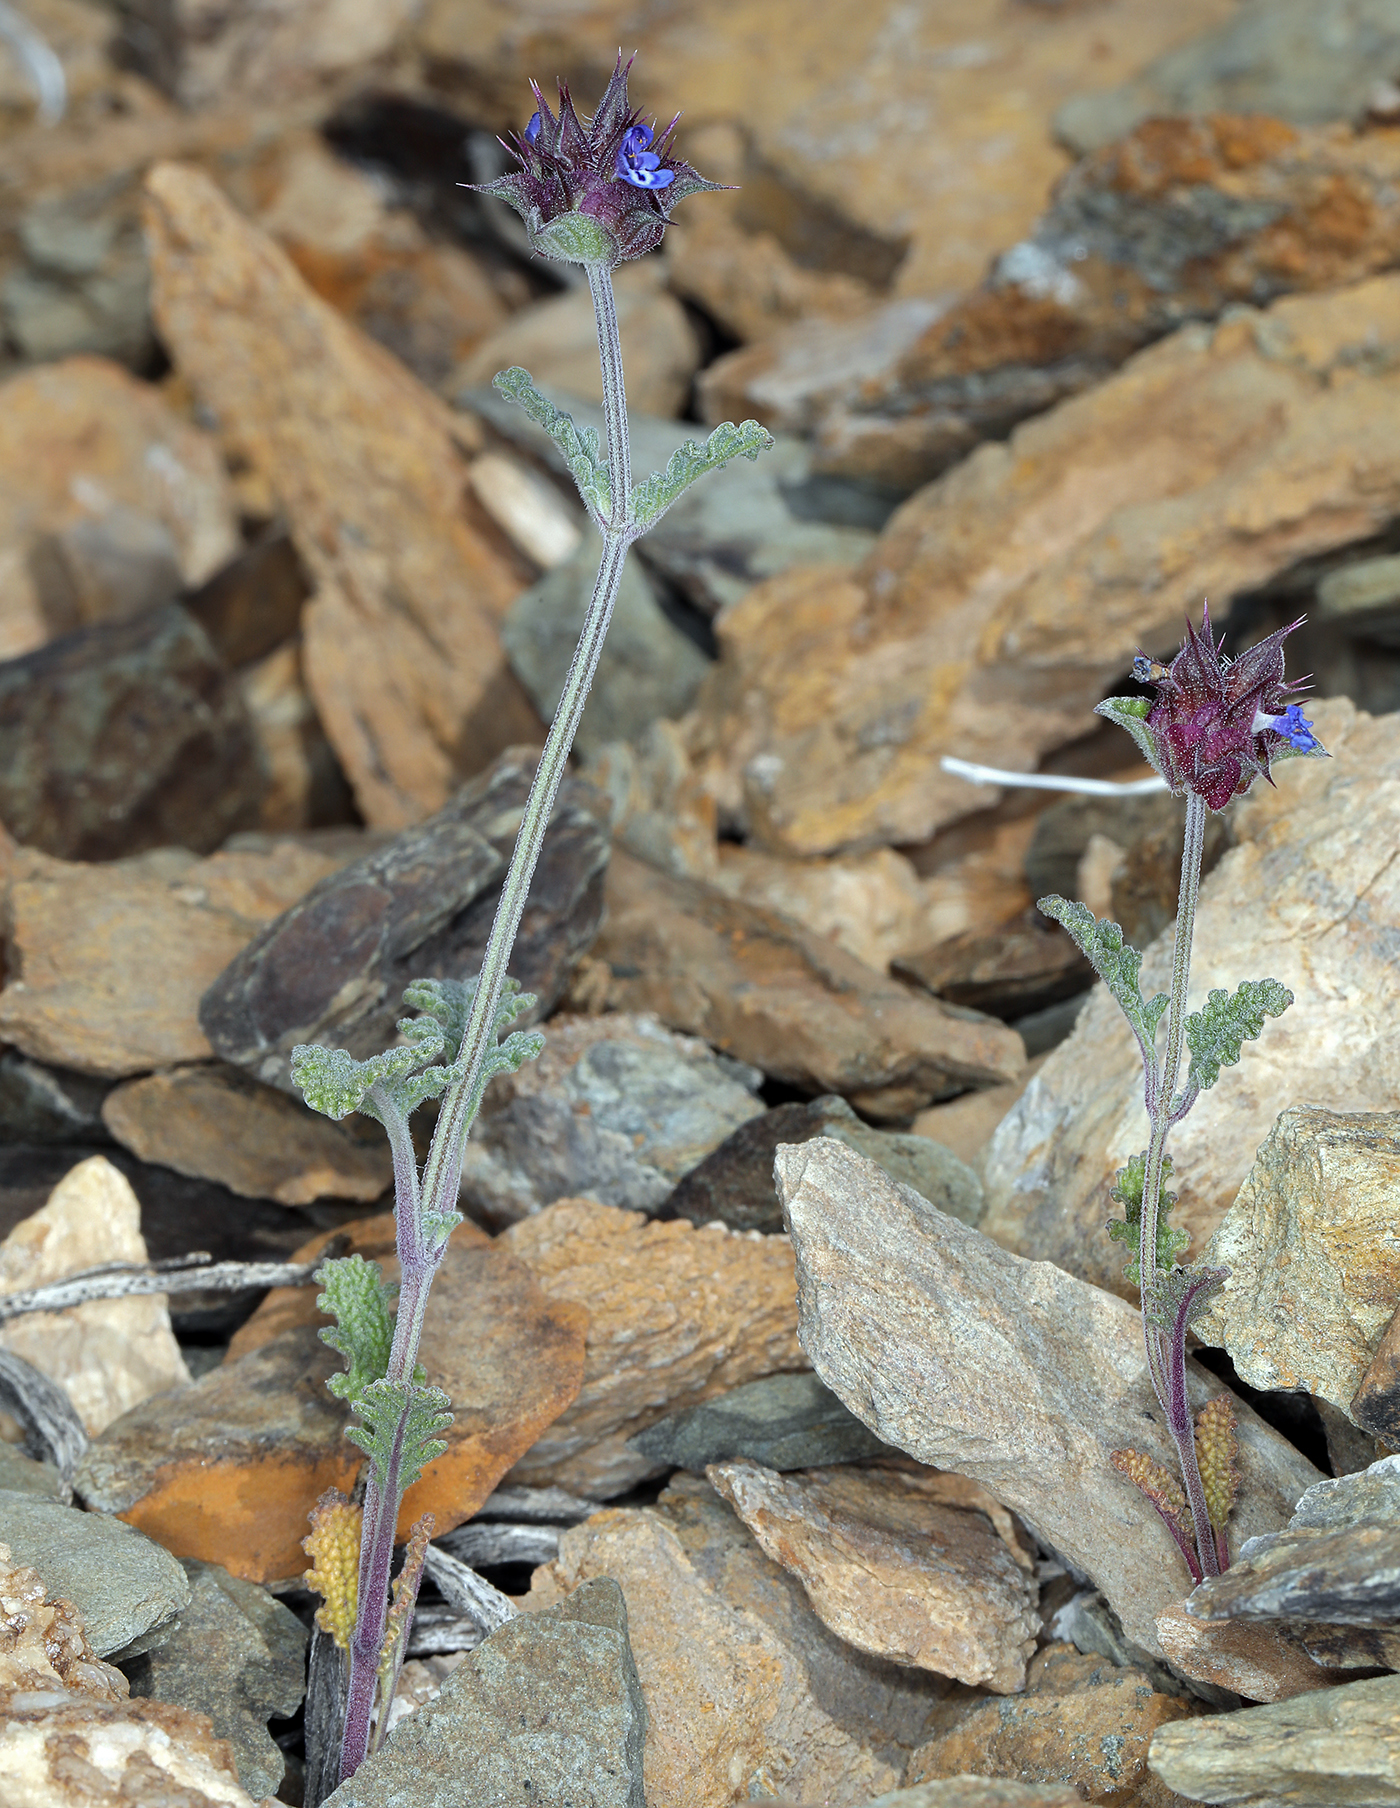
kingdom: Plantae
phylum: Tracheophyta
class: Magnoliopsida
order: Lamiales
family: Lamiaceae
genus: Salvia
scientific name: Salvia columbariae
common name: Chia
